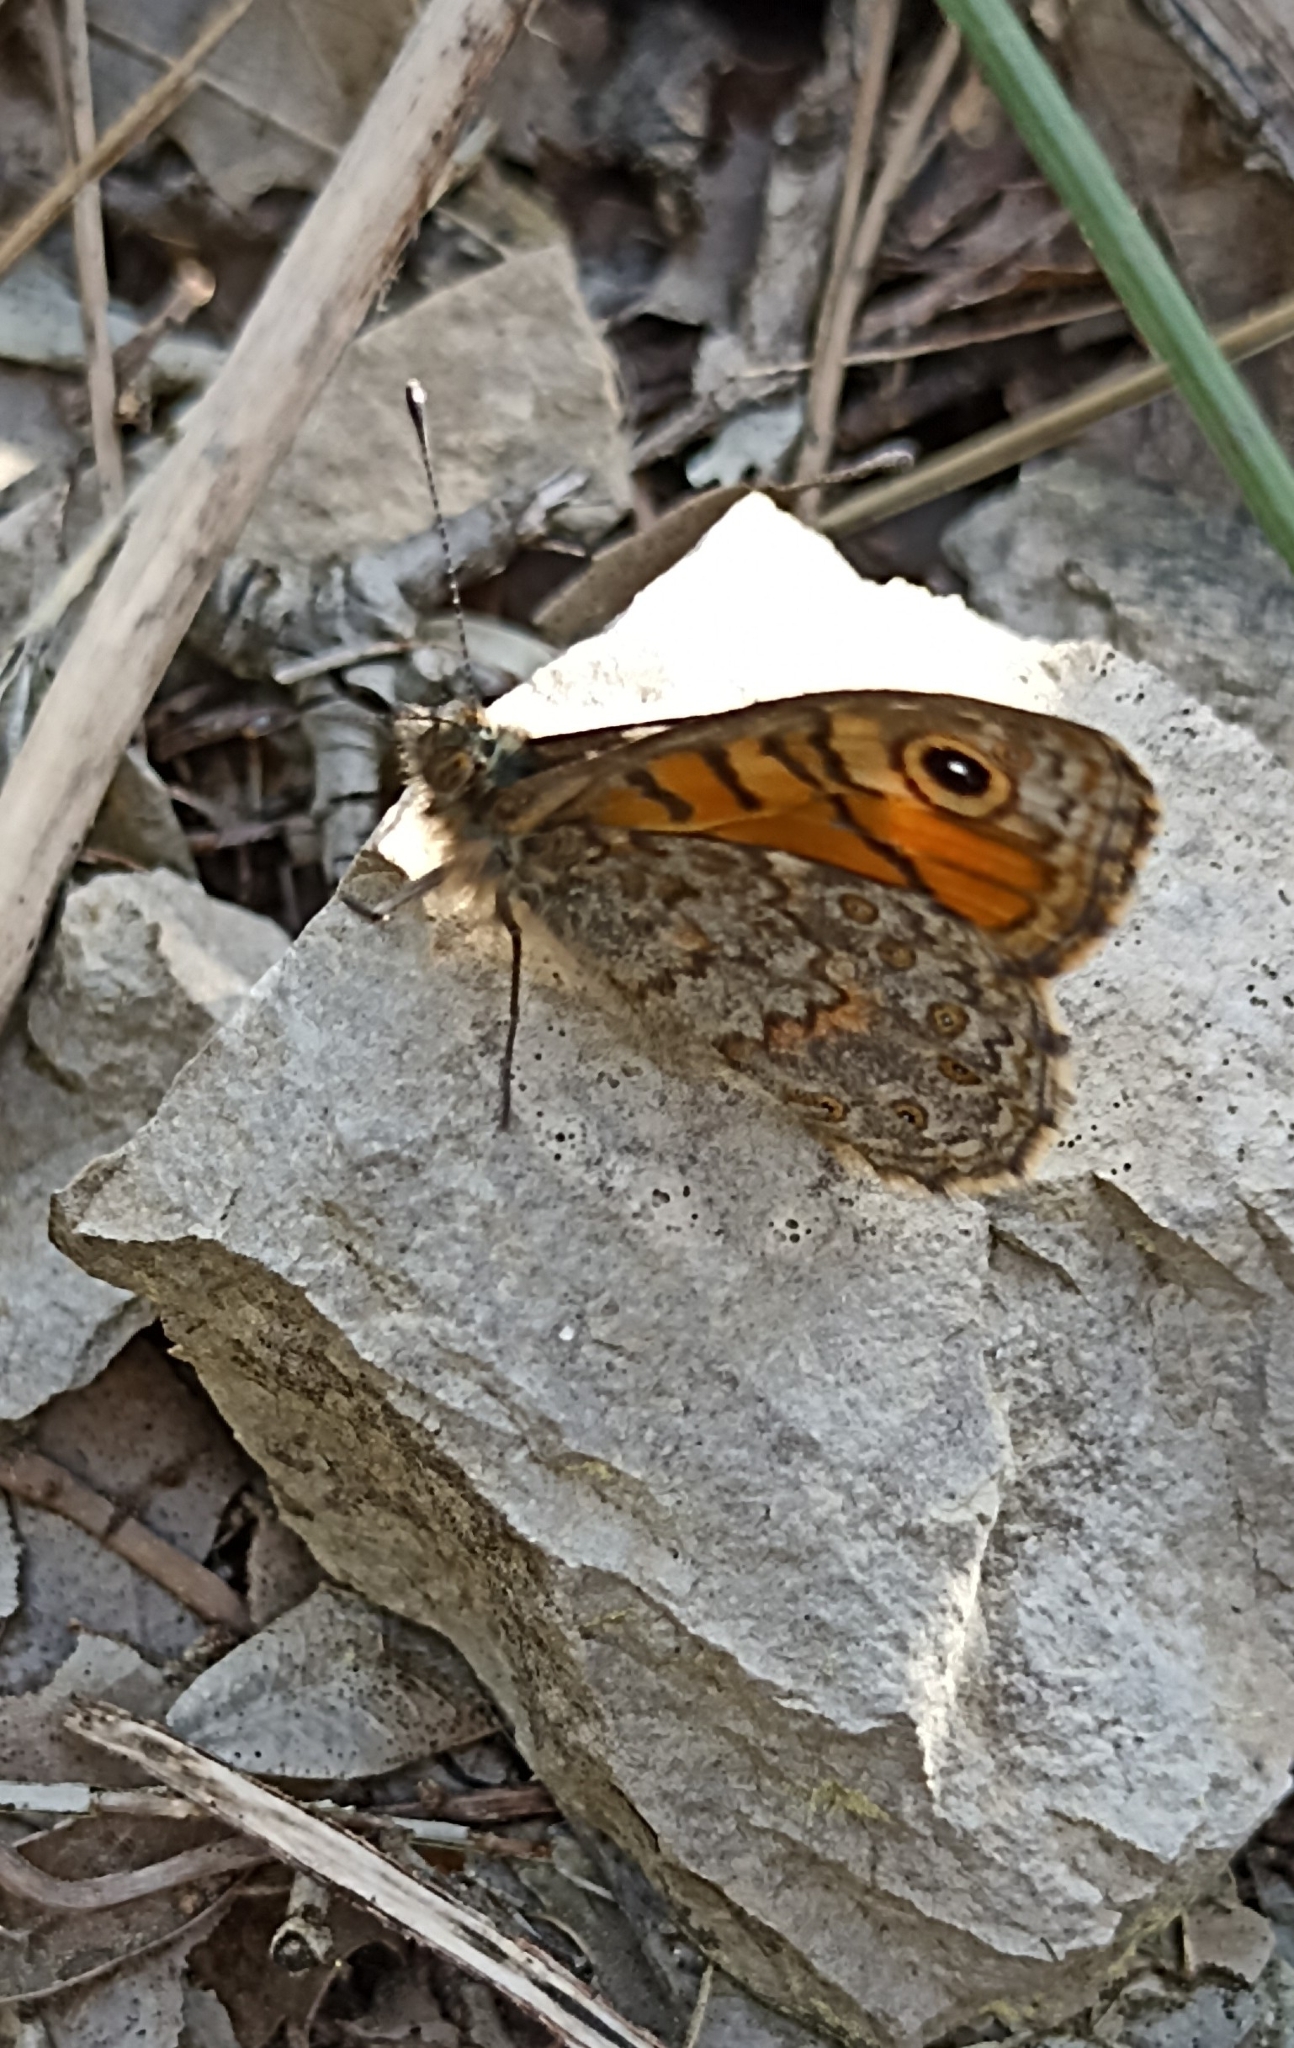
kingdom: Animalia
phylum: Arthropoda
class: Insecta
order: Lepidoptera
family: Nymphalidae
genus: Pararge
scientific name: Pararge Lasiommata megera
